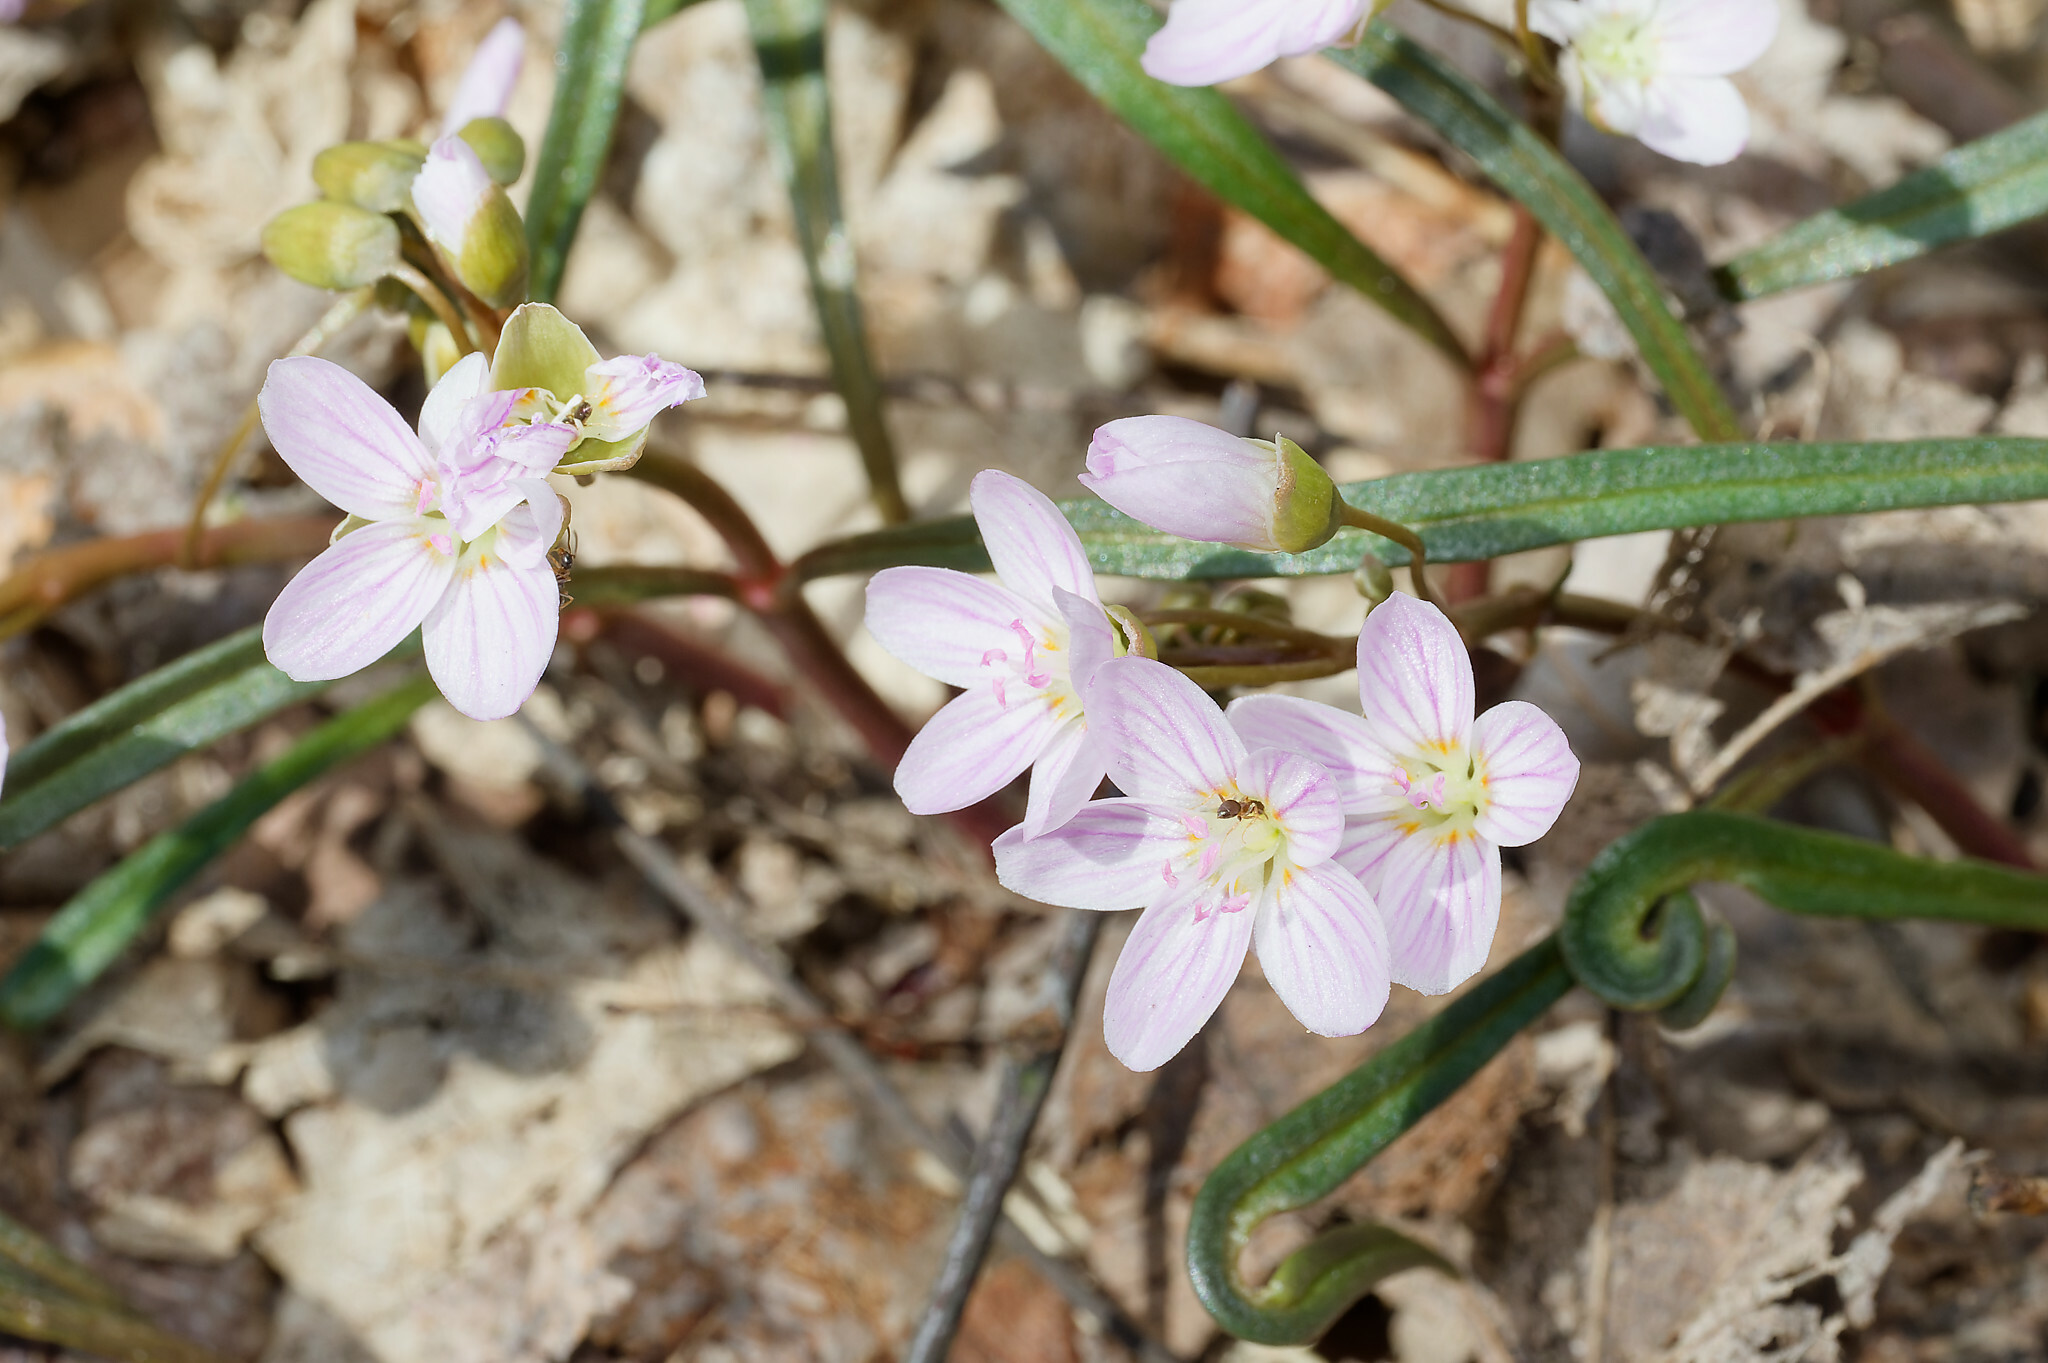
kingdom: Plantae
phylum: Tracheophyta
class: Magnoliopsida
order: Caryophyllales
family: Montiaceae
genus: Claytonia
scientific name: Claytonia virginica
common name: Virginia springbeauty
